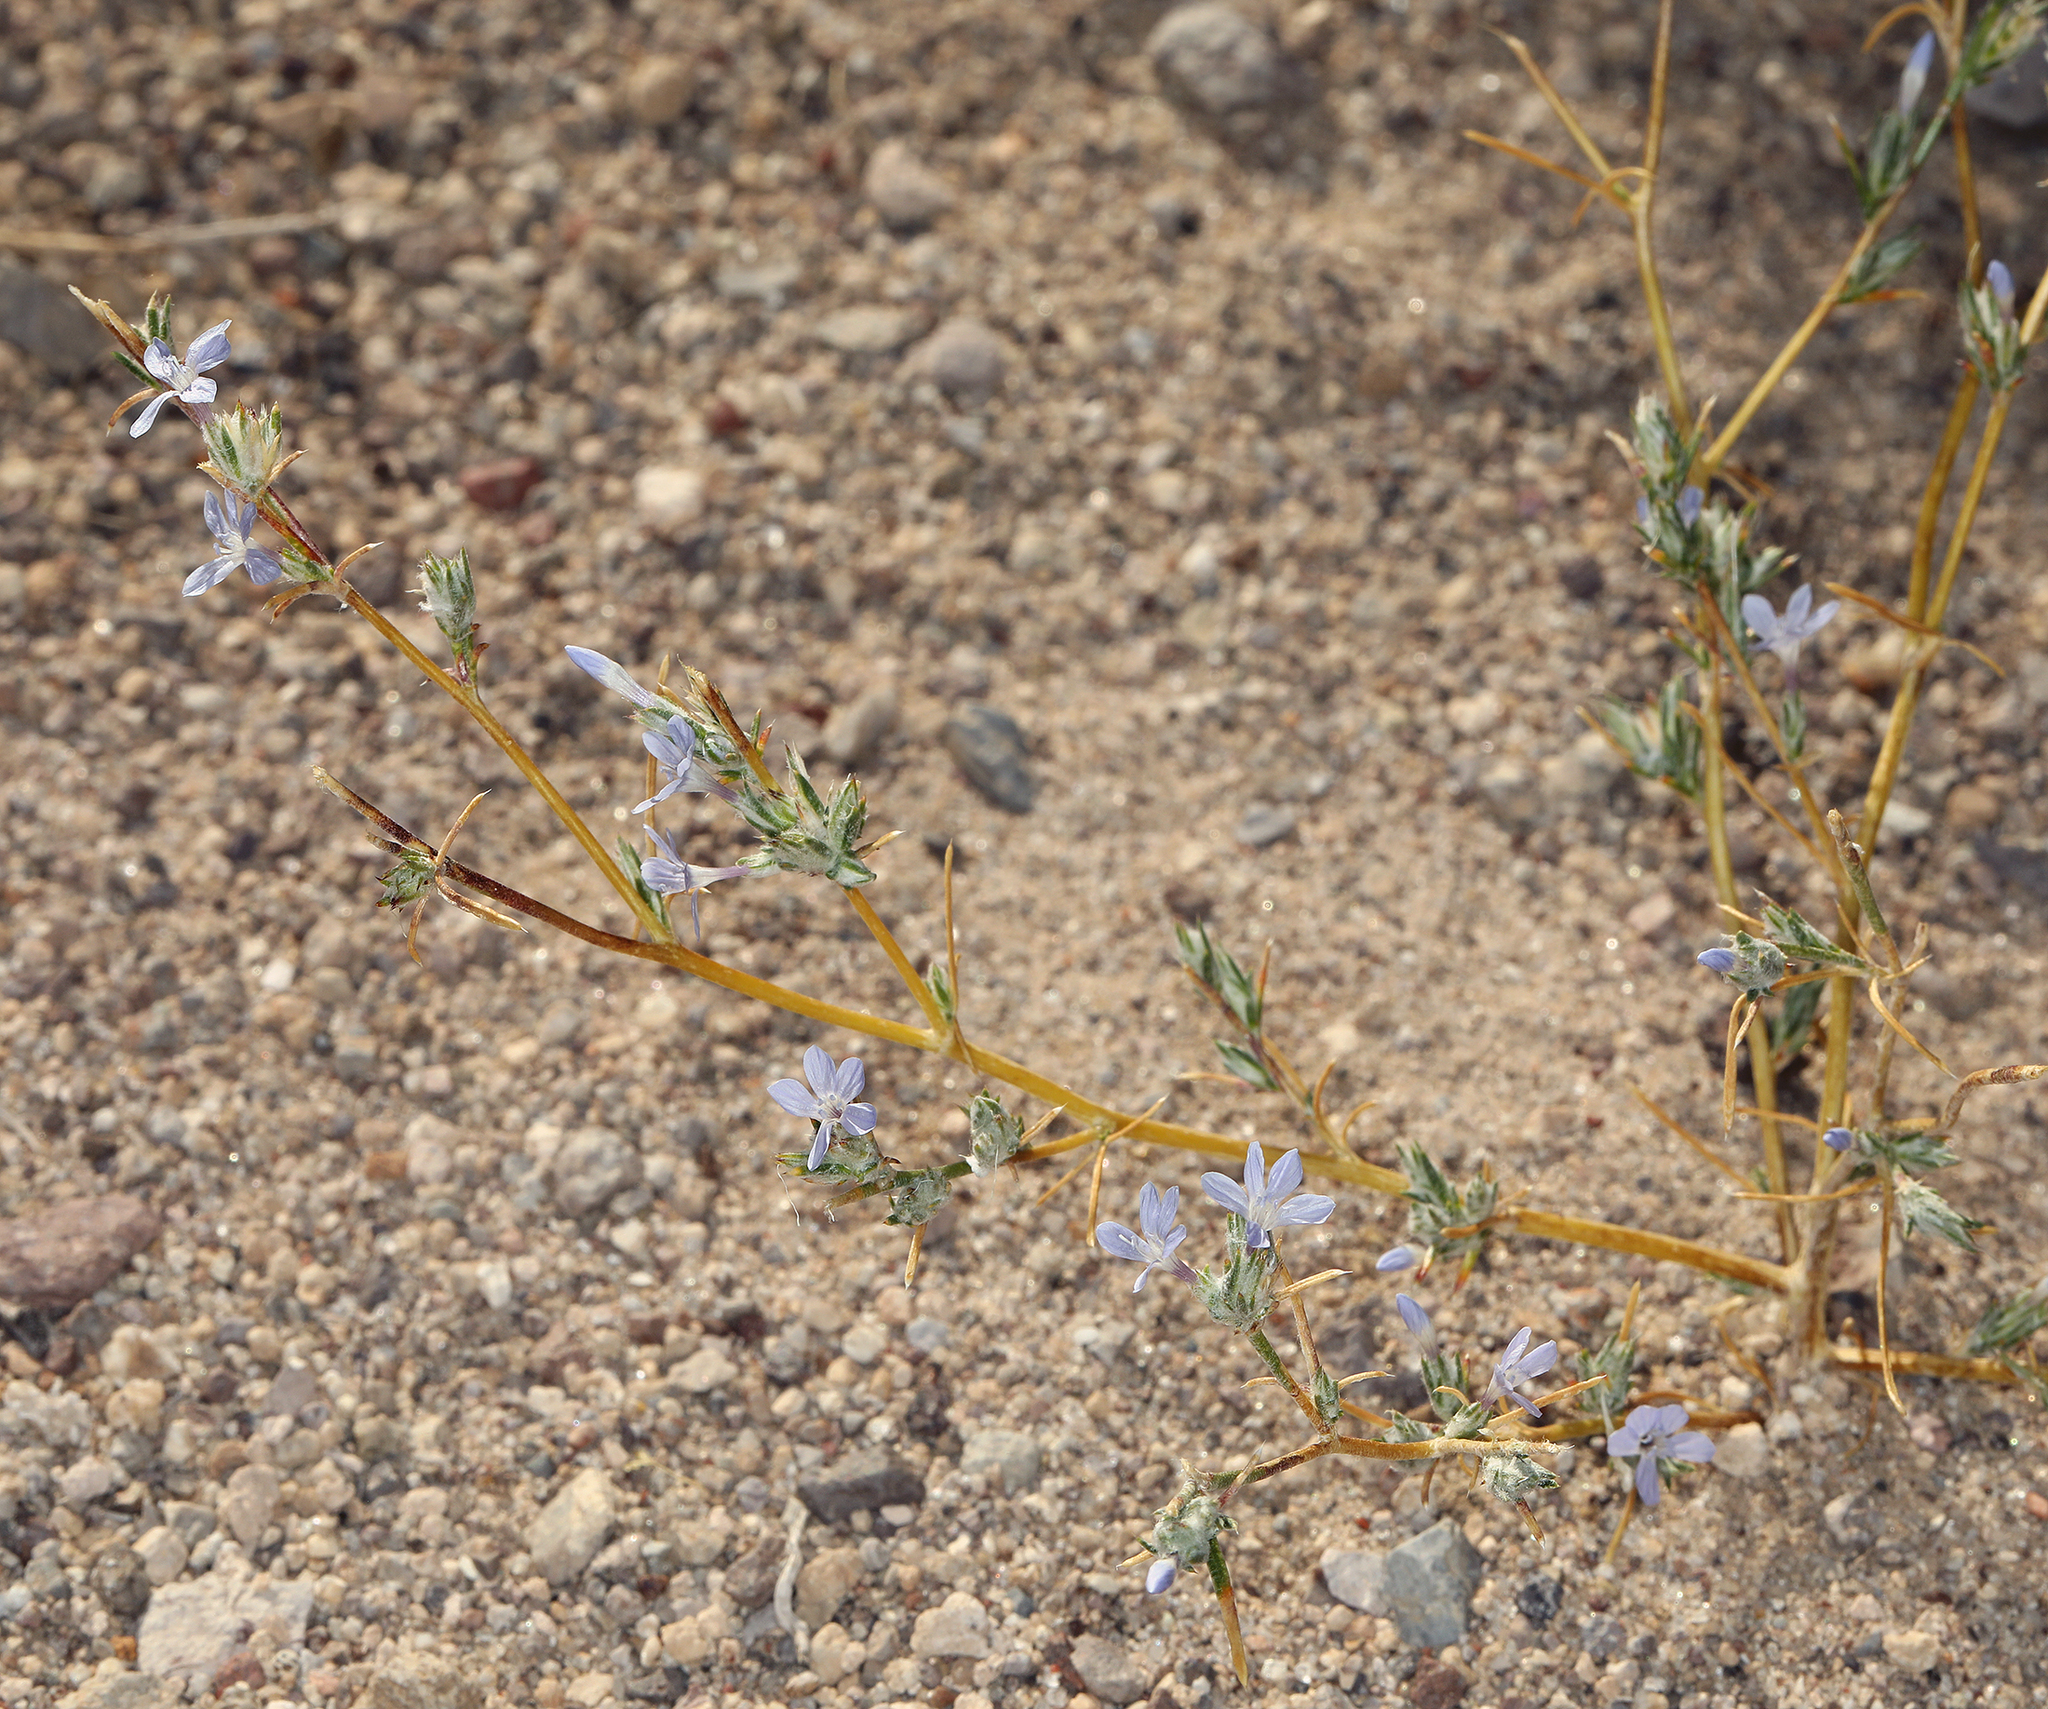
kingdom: Plantae
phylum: Tracheophyta
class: Magnoliopsida
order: Ericales
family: Polemoniaceae
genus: Eriastrum
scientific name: Eriastrum wilcoxii
